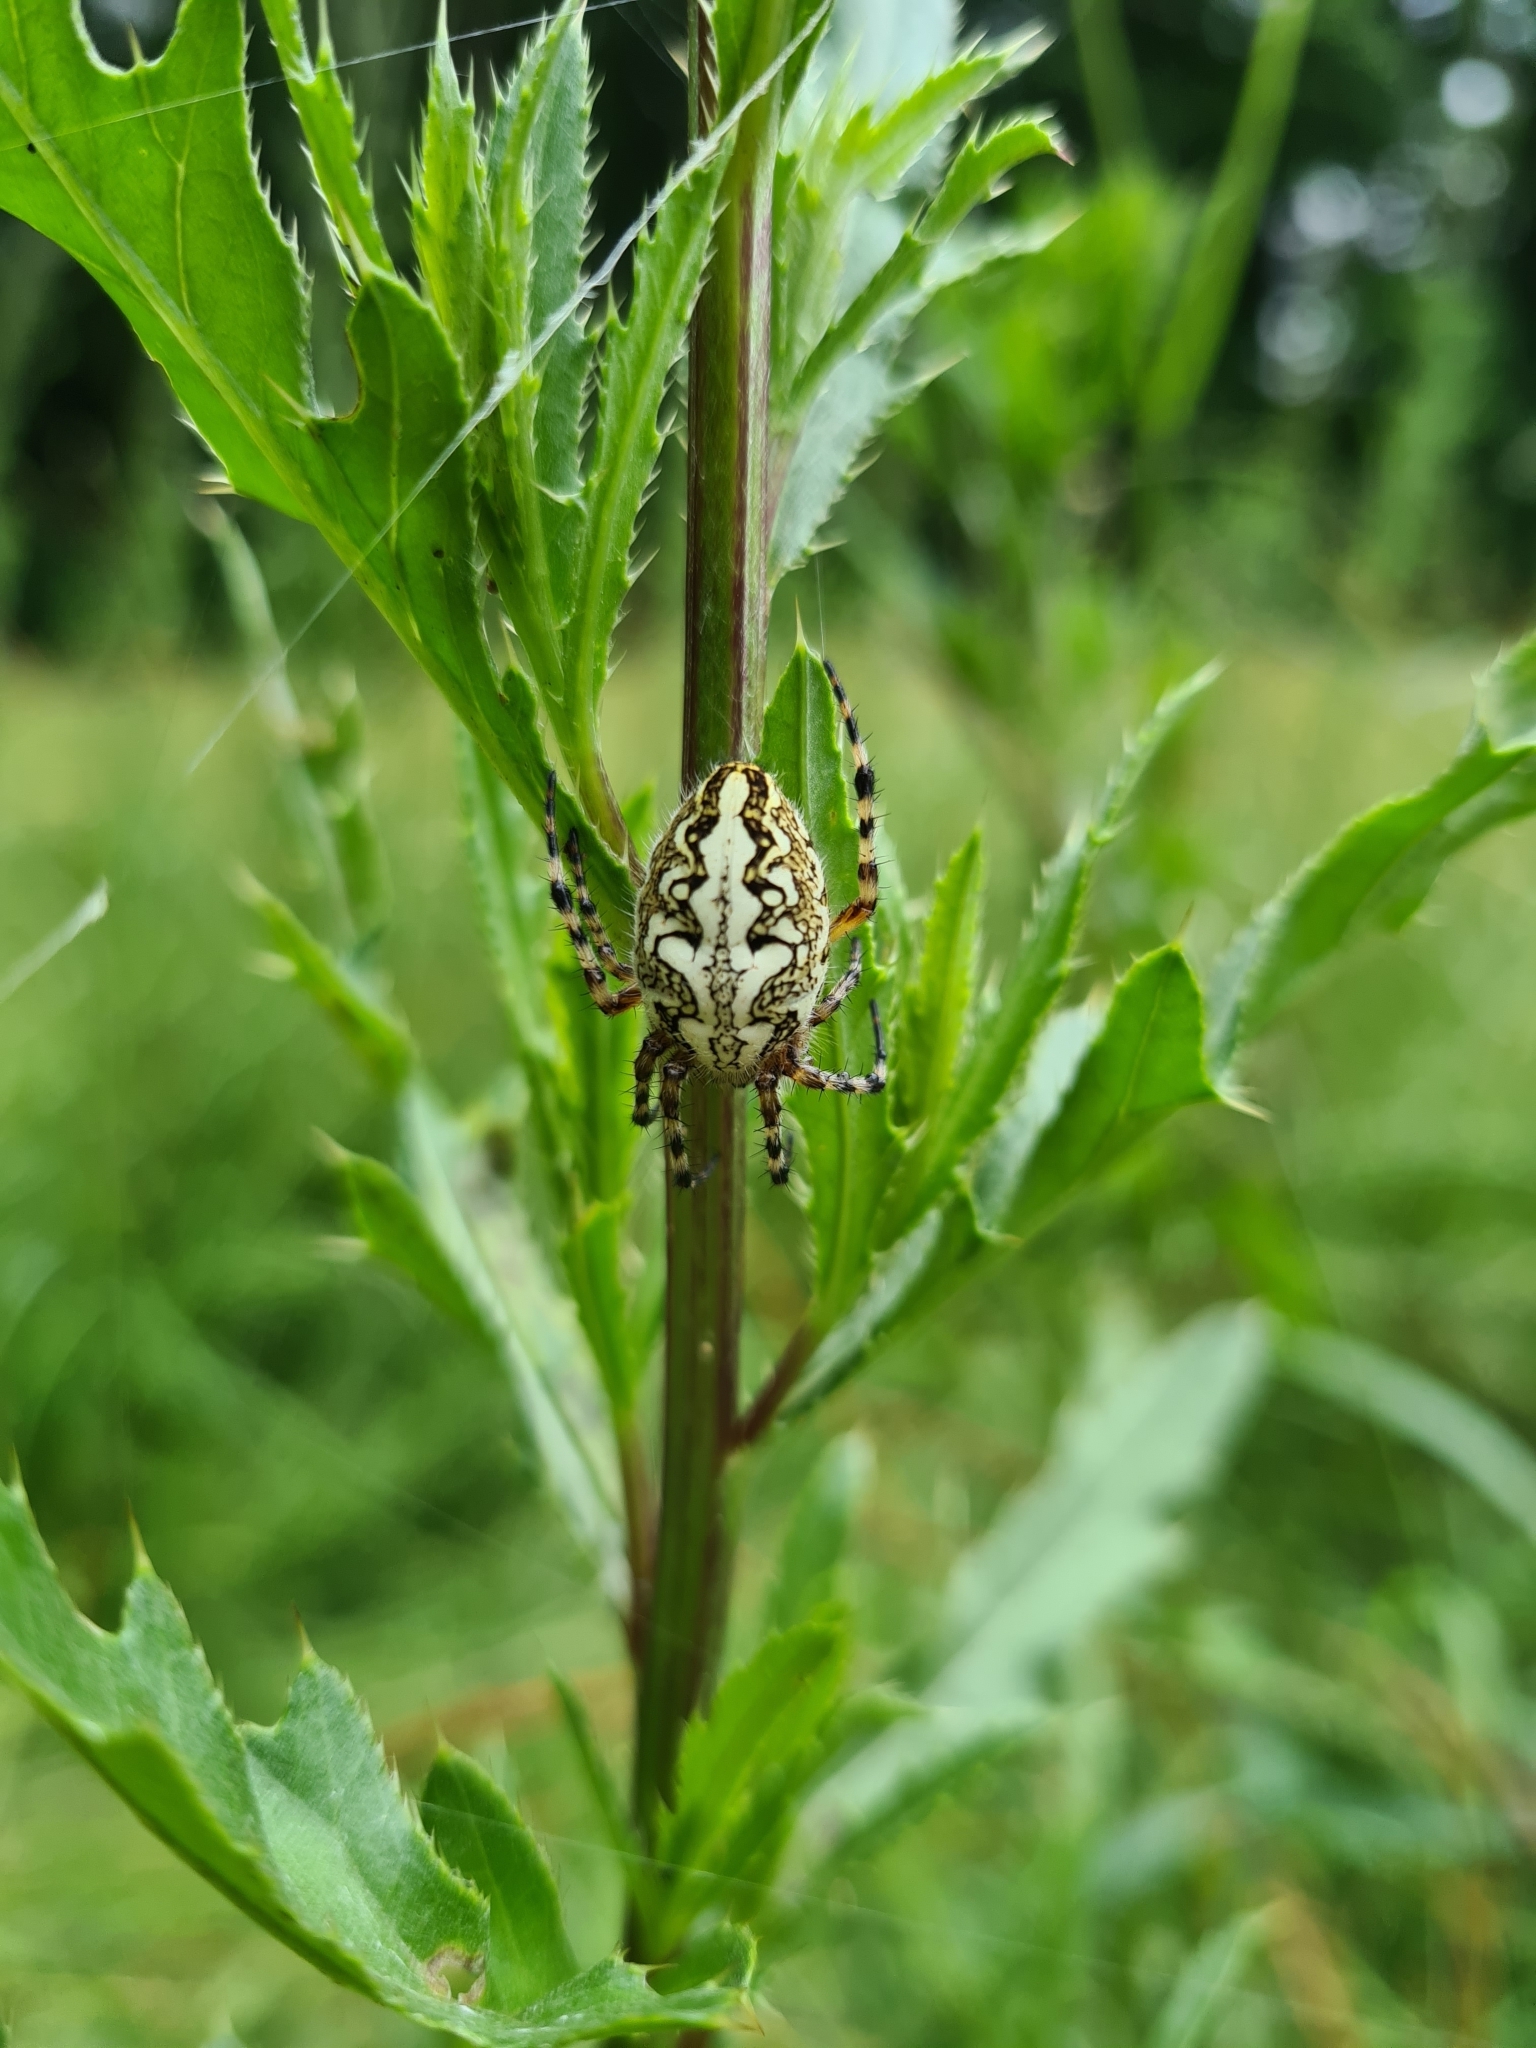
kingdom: Animalia
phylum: Arthropoda
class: Arachnida
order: Araneae
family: Araneidae
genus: Aculepeira
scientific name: Aculepeira ceropegia
